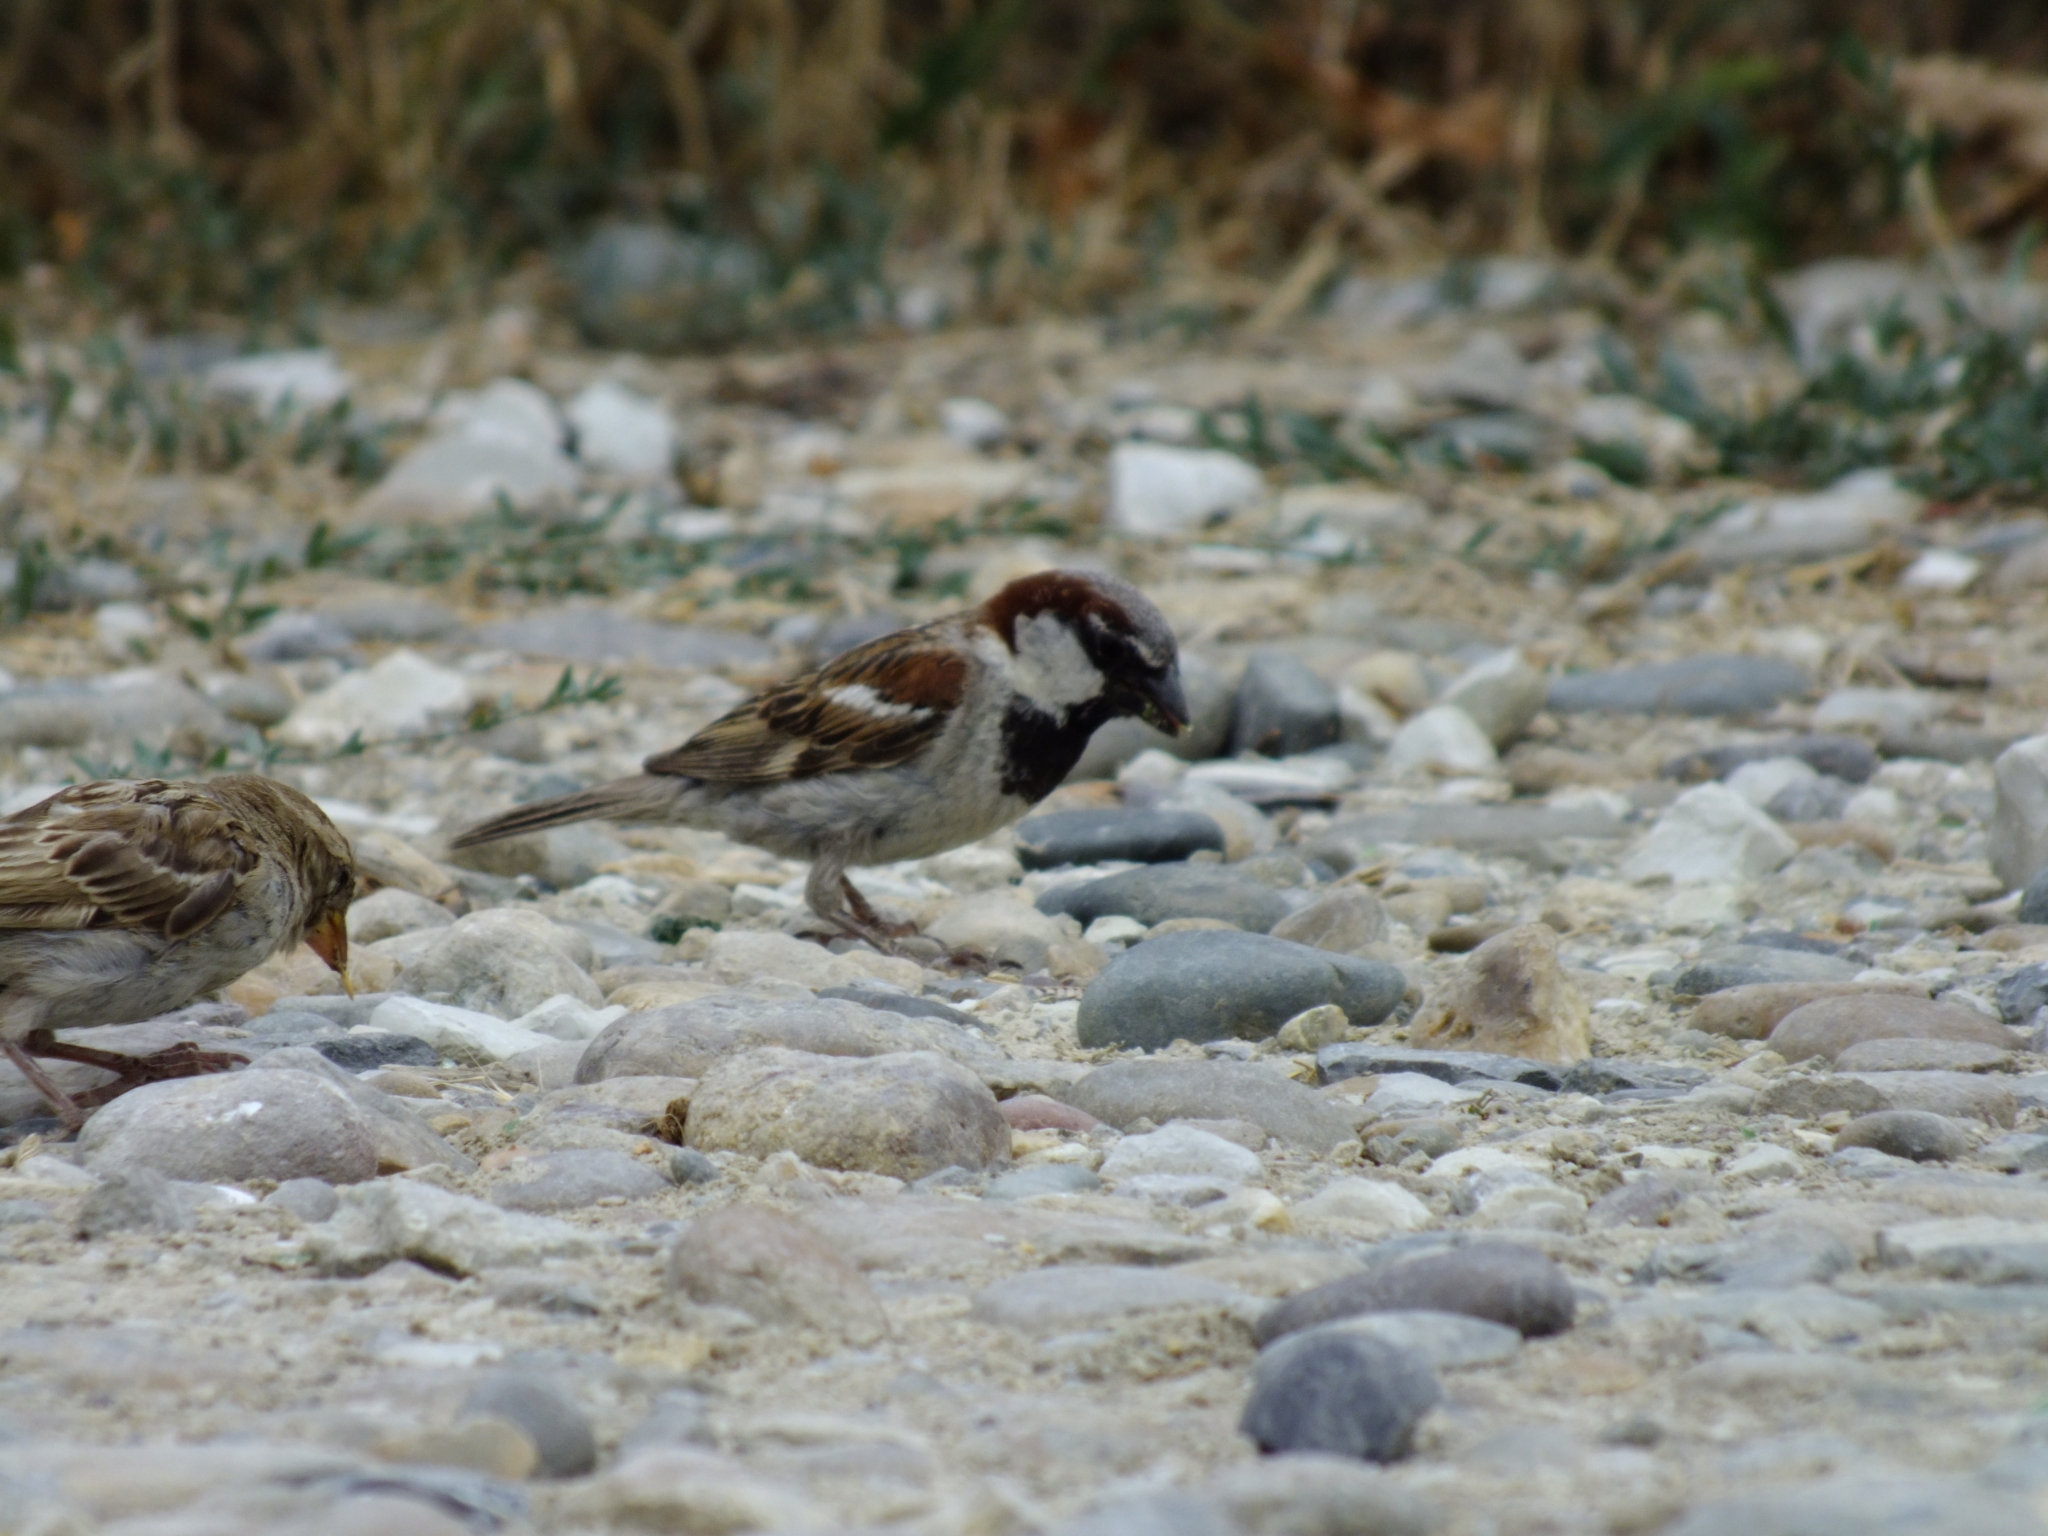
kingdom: Animalia
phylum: Chordata
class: Aves
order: Passeriformes
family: Passeridae
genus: Passer
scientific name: Passer domesticus
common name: House sparrow
